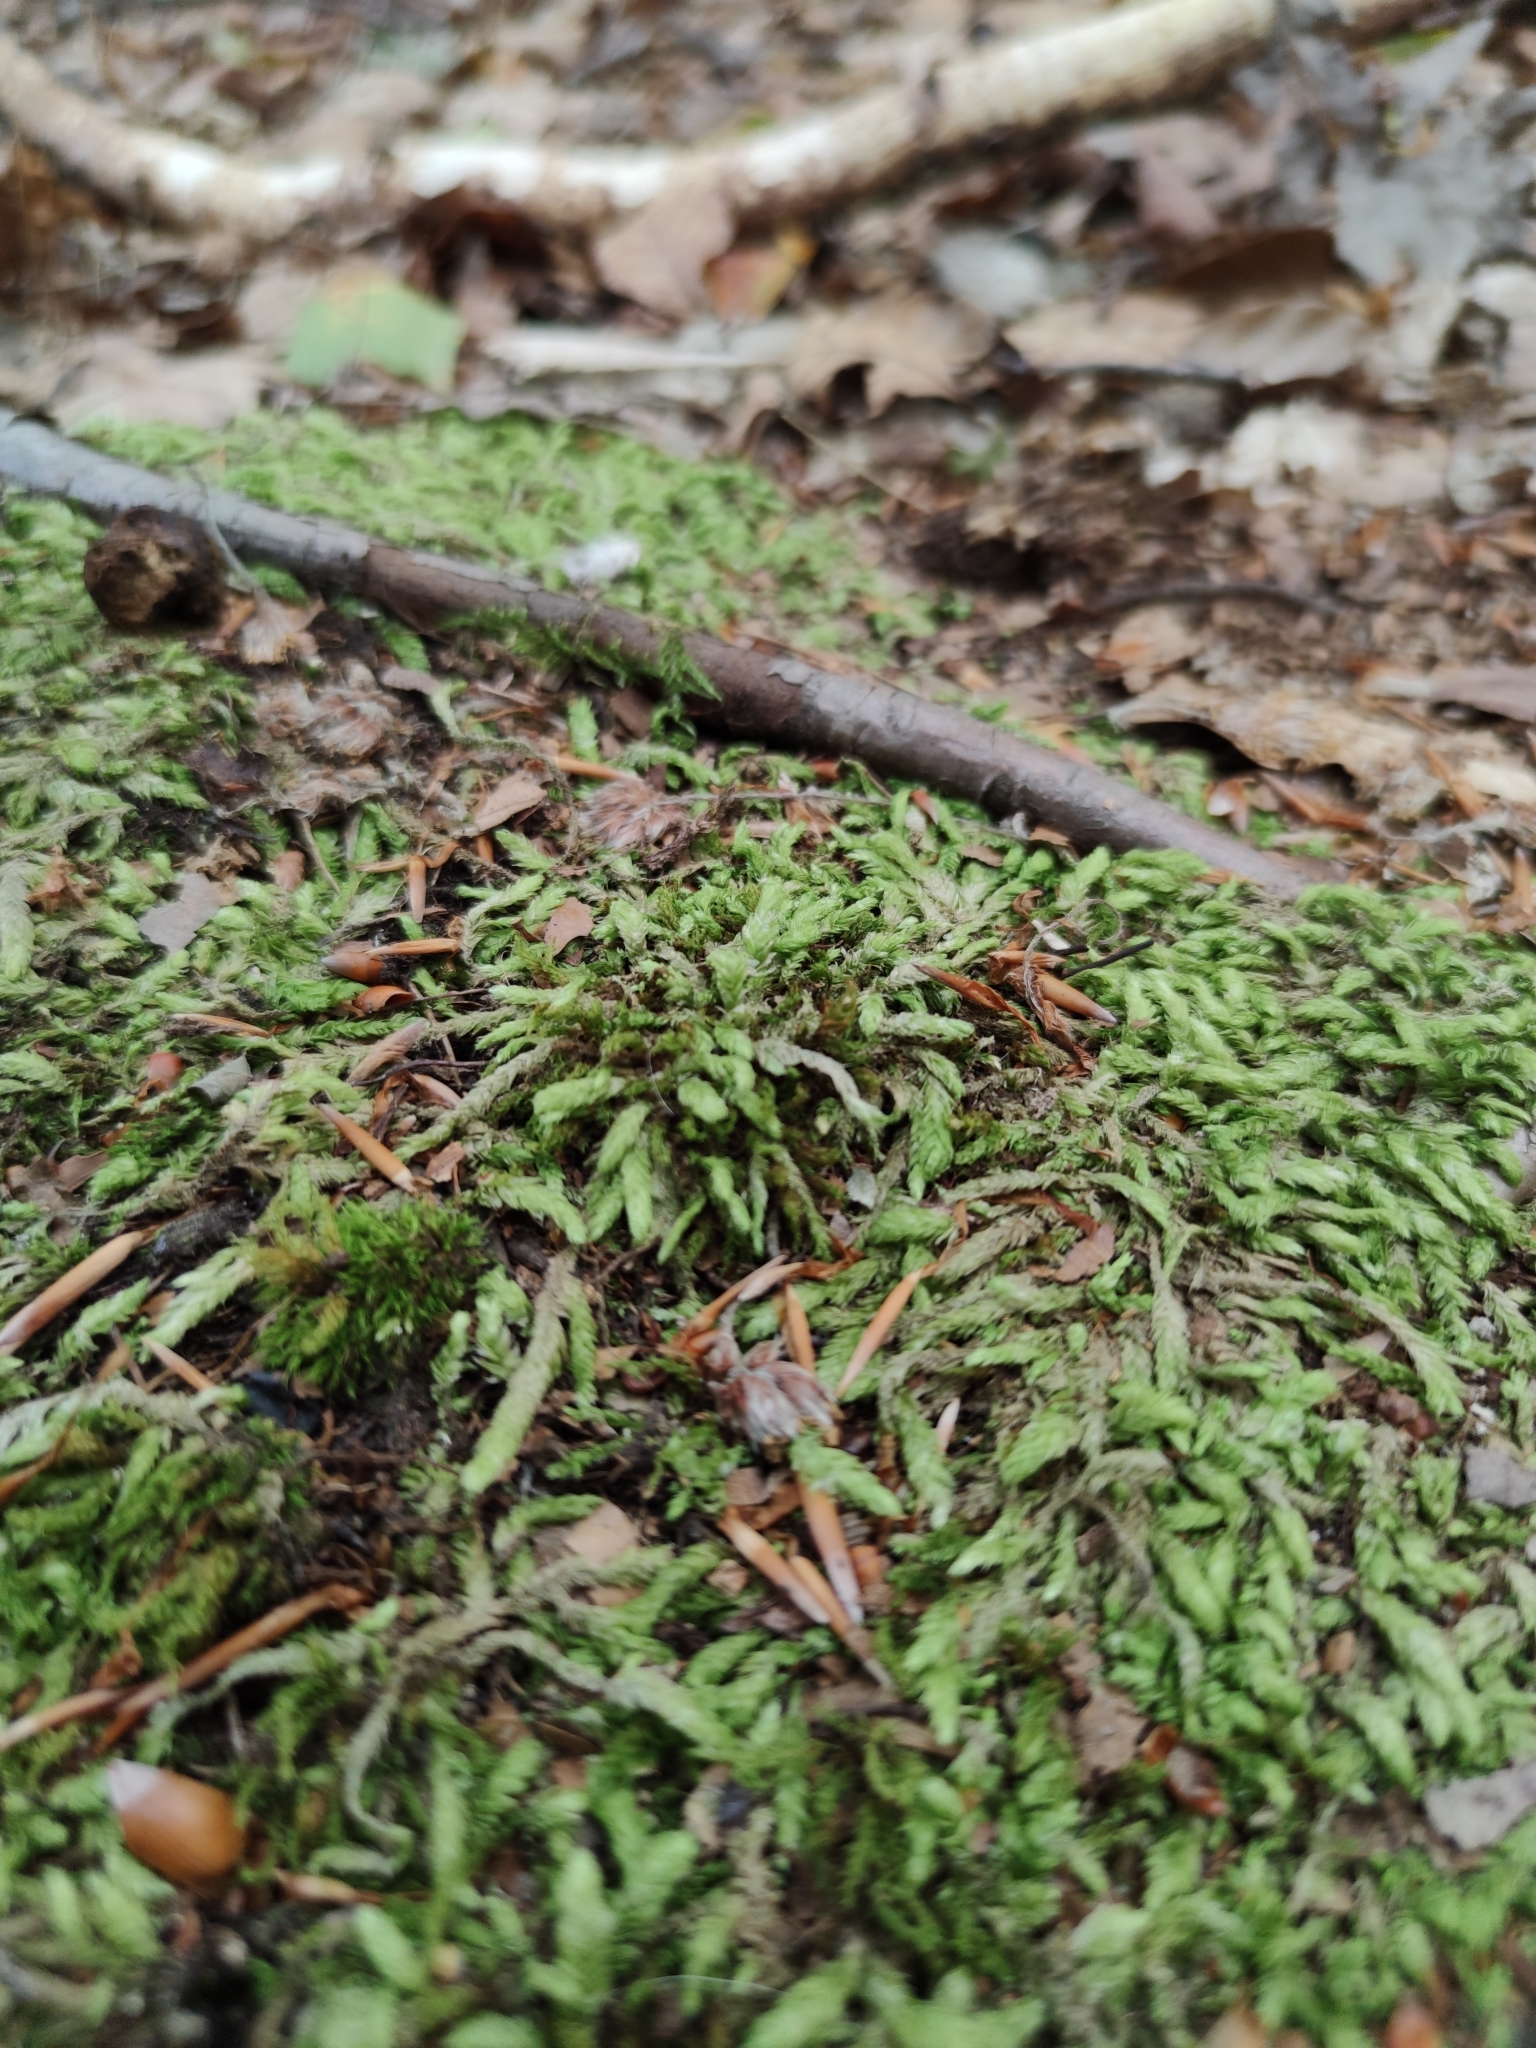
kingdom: Plantae
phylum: Bryophyta
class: Bryopsida
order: Hypnales
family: Plagiotheciaceae
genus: Plagiothecium
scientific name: Plagiothecium undulatum
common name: Waved silk-moss
